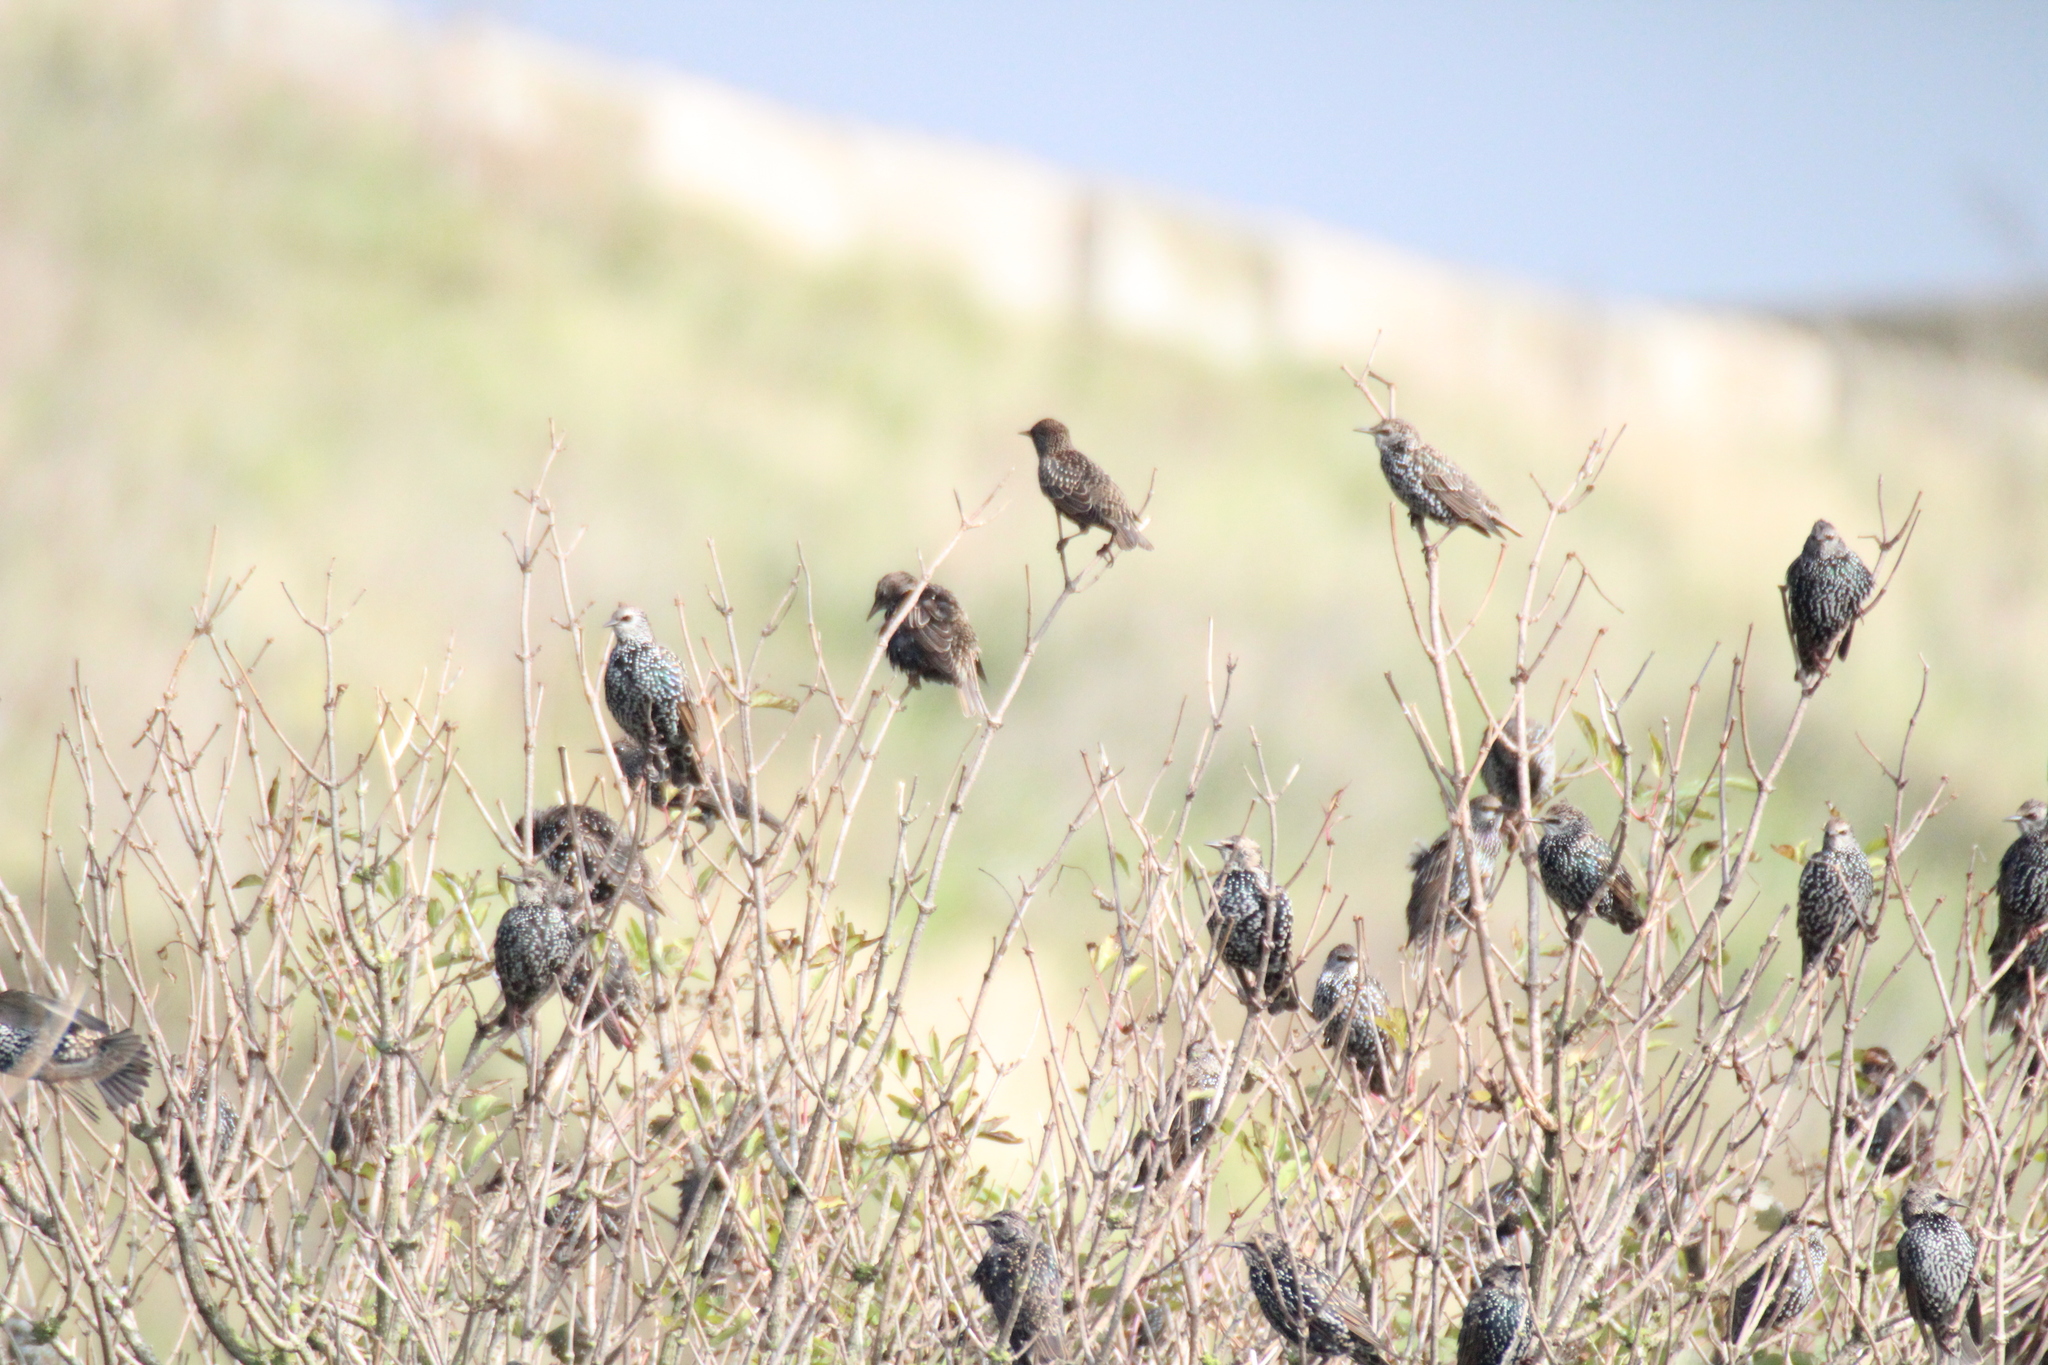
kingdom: Animalia
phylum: Chordata
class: Aves
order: Passeriformes
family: Sturnidae
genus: Sturnus
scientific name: Sturnus vulgaris
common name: Common starling
